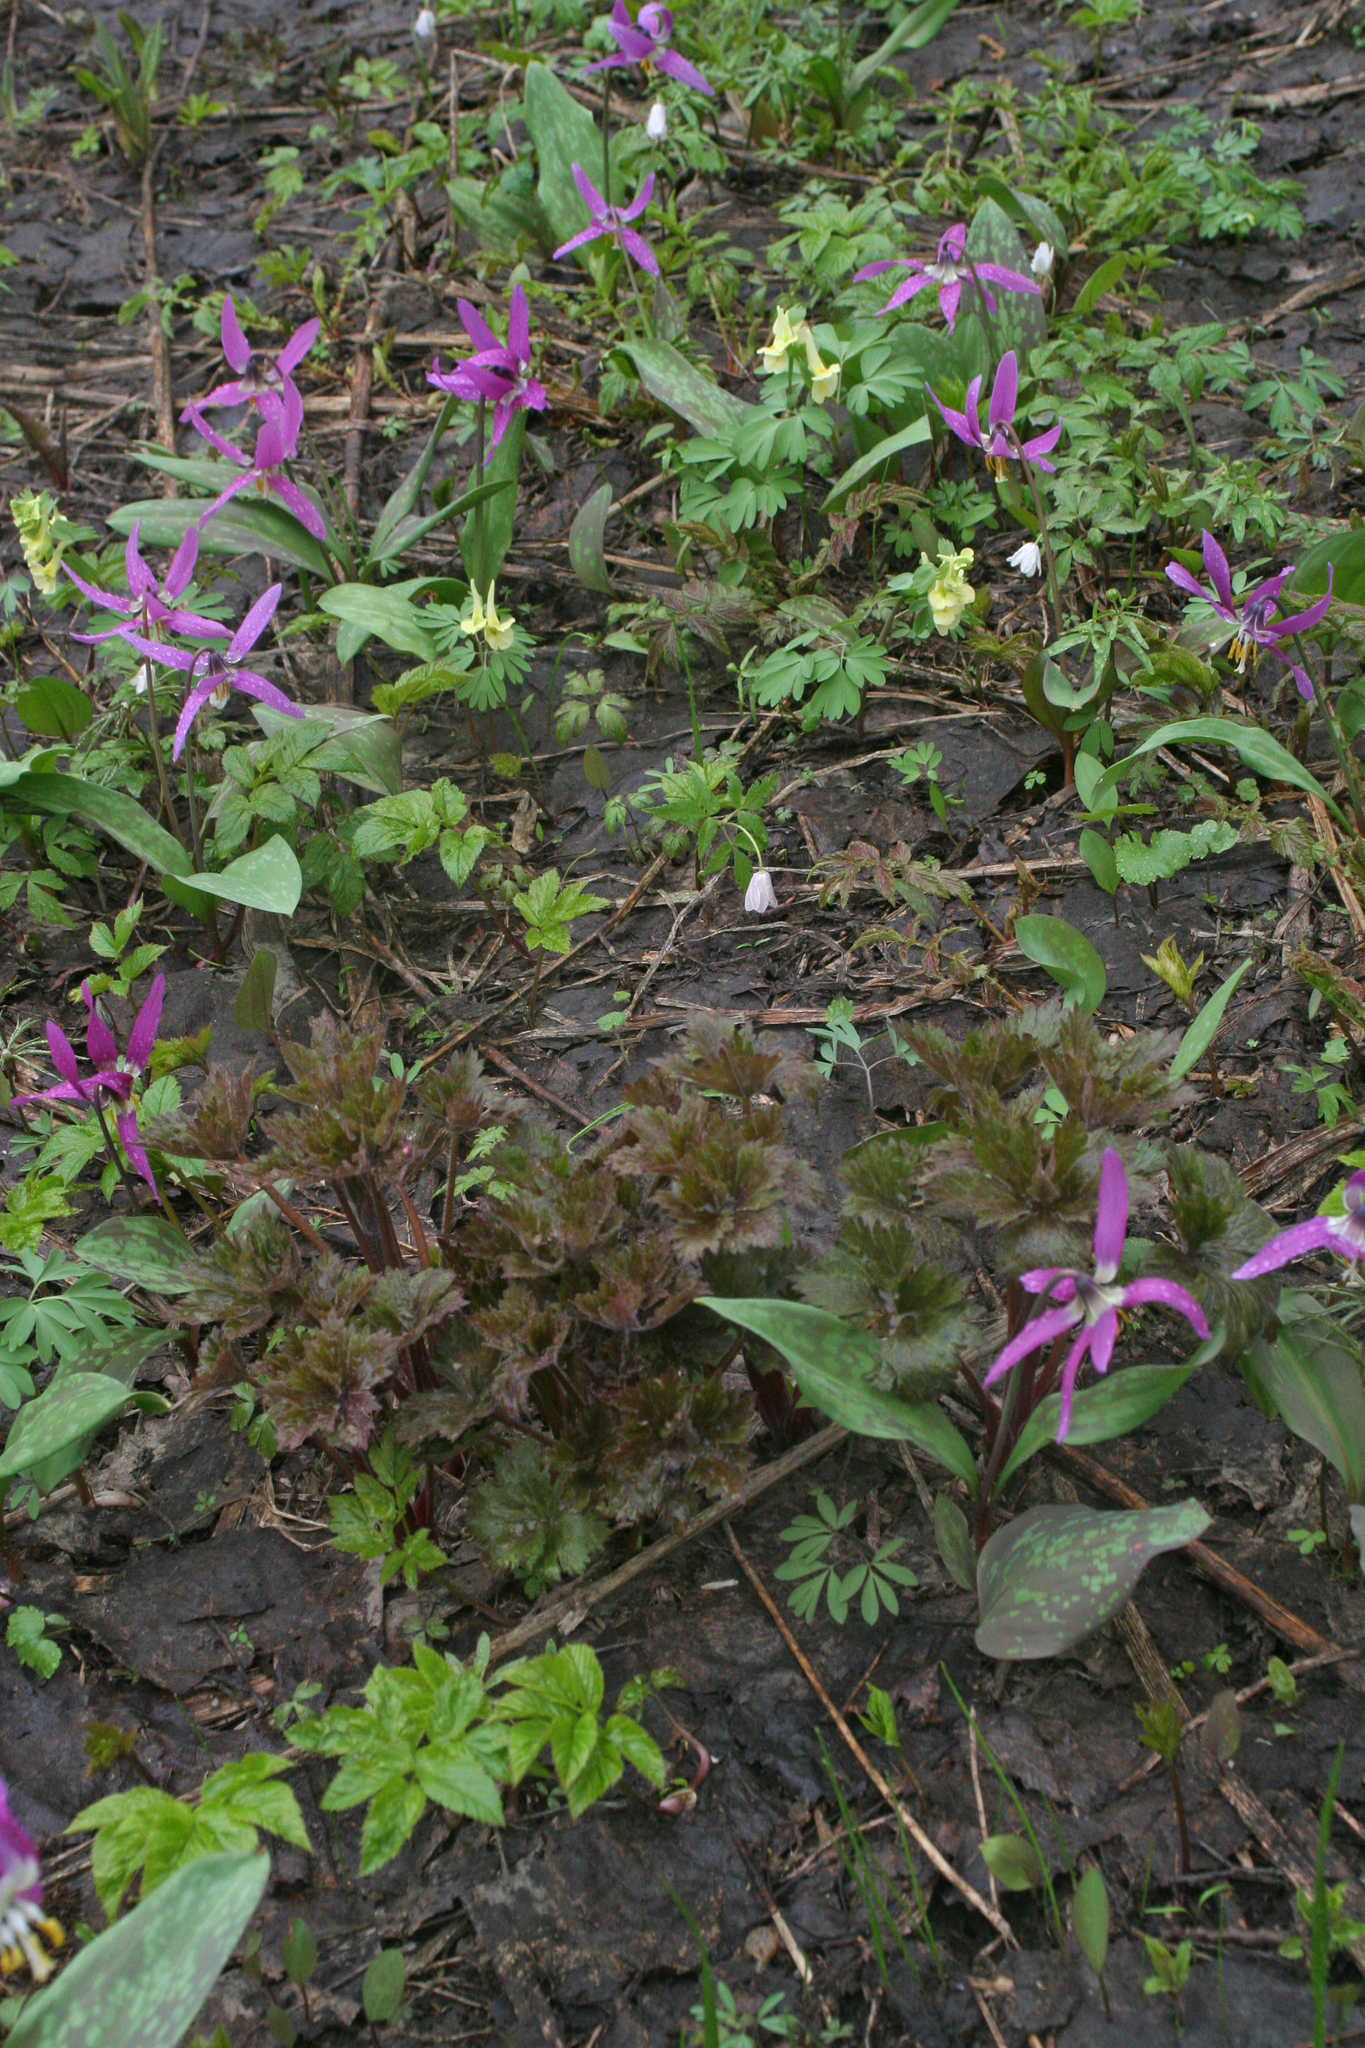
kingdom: Plantae
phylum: Tracheophyta
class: Liliopsida
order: Liliales
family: Liliaceae
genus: Erythronium
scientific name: Erythronium sibiricum
